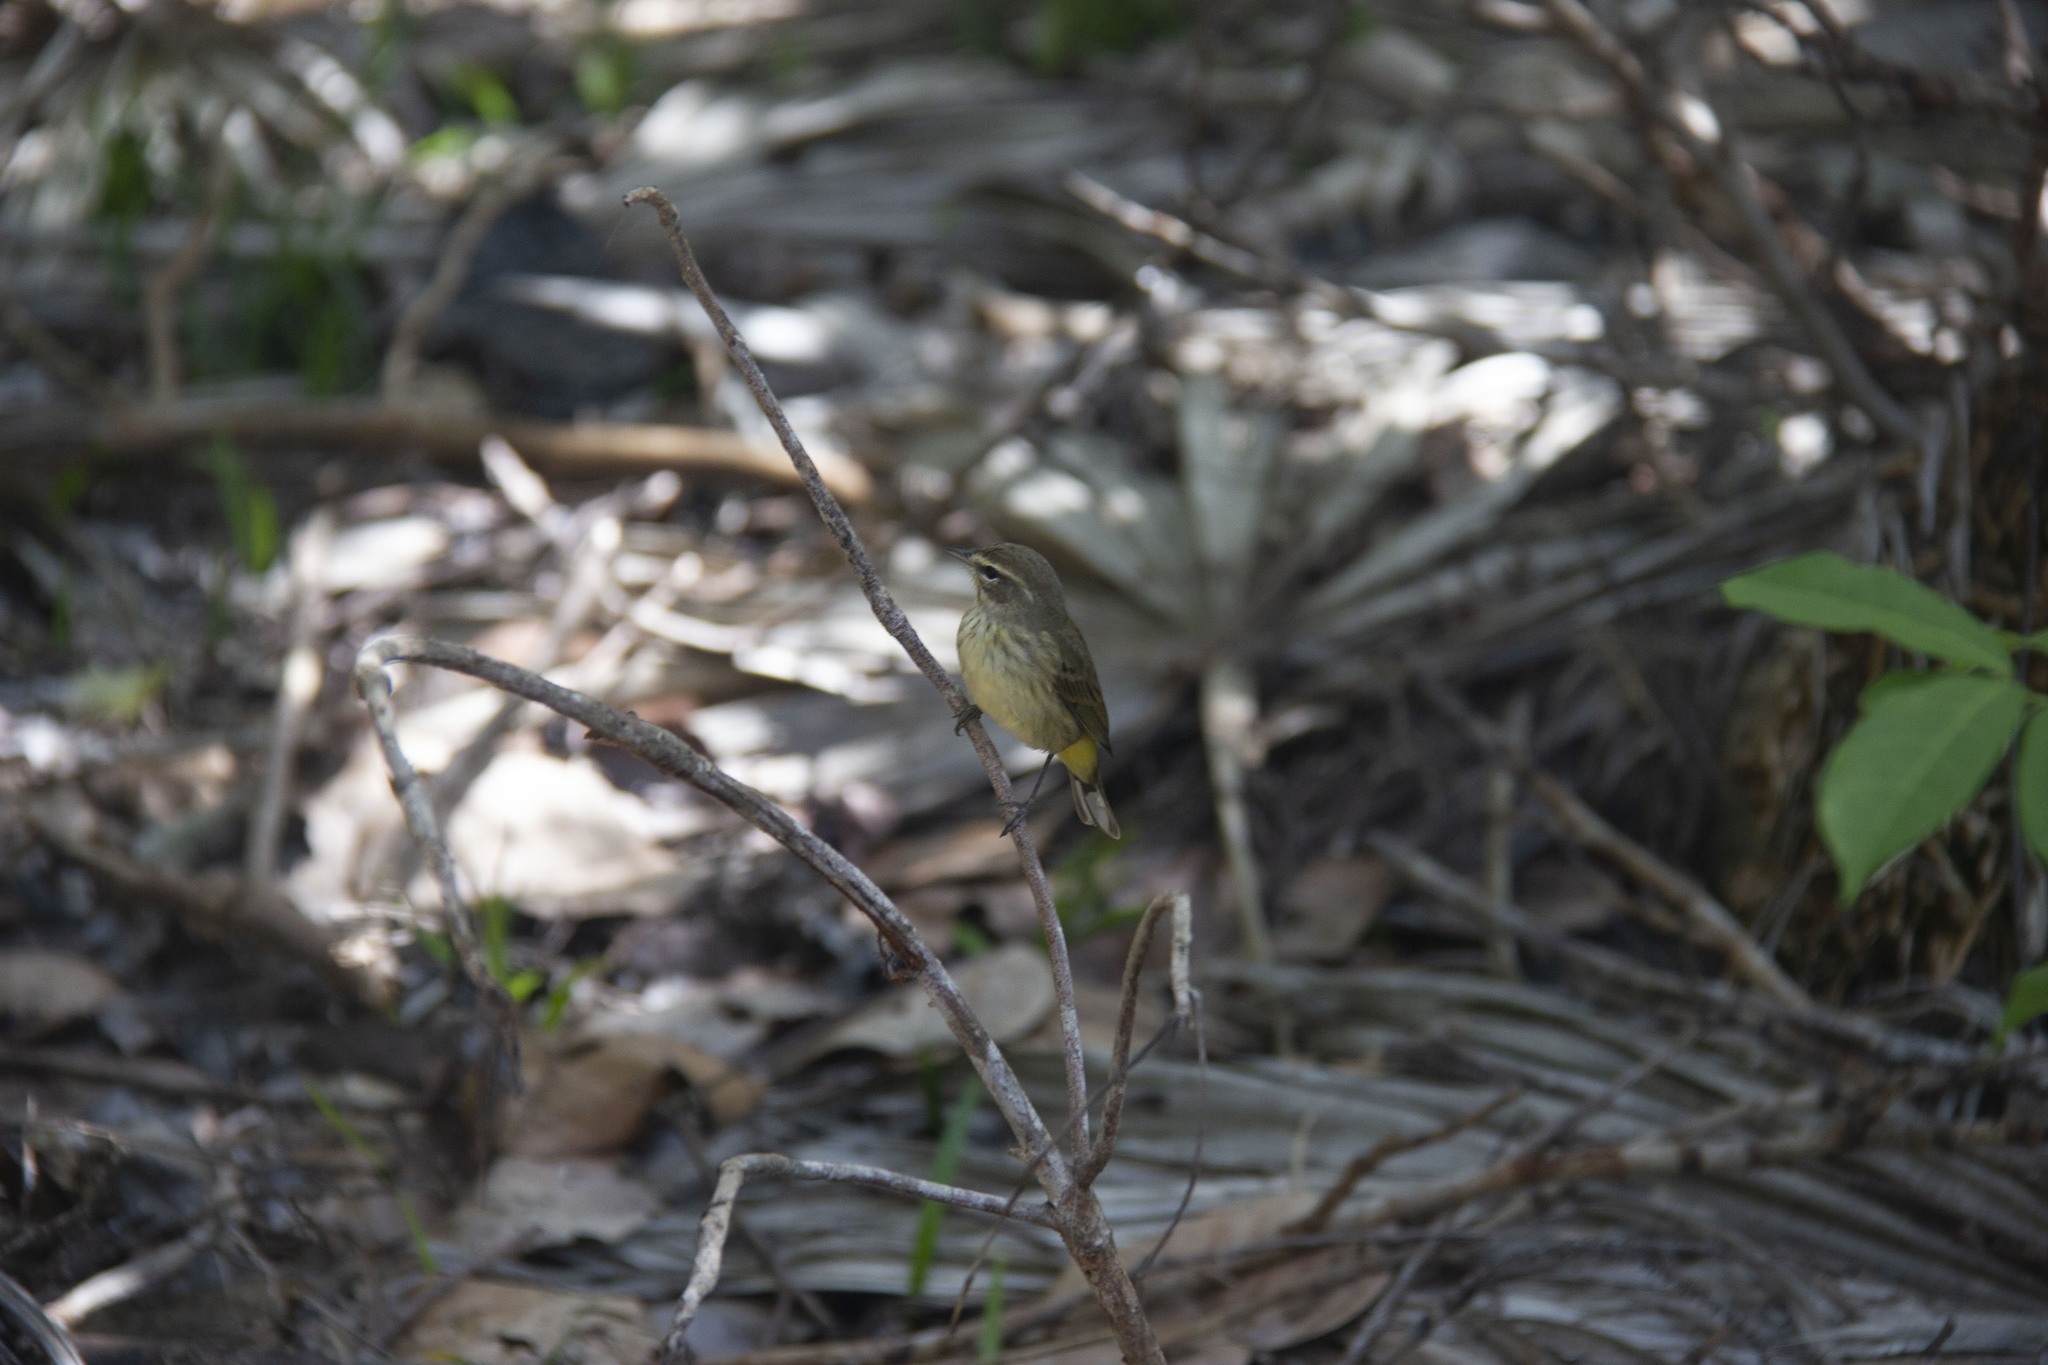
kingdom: Animalia
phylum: Chordata
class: Aves
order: Passeriformes
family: Parulidae
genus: Setophaga
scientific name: Setophaga palmarum
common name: Palm warbler
